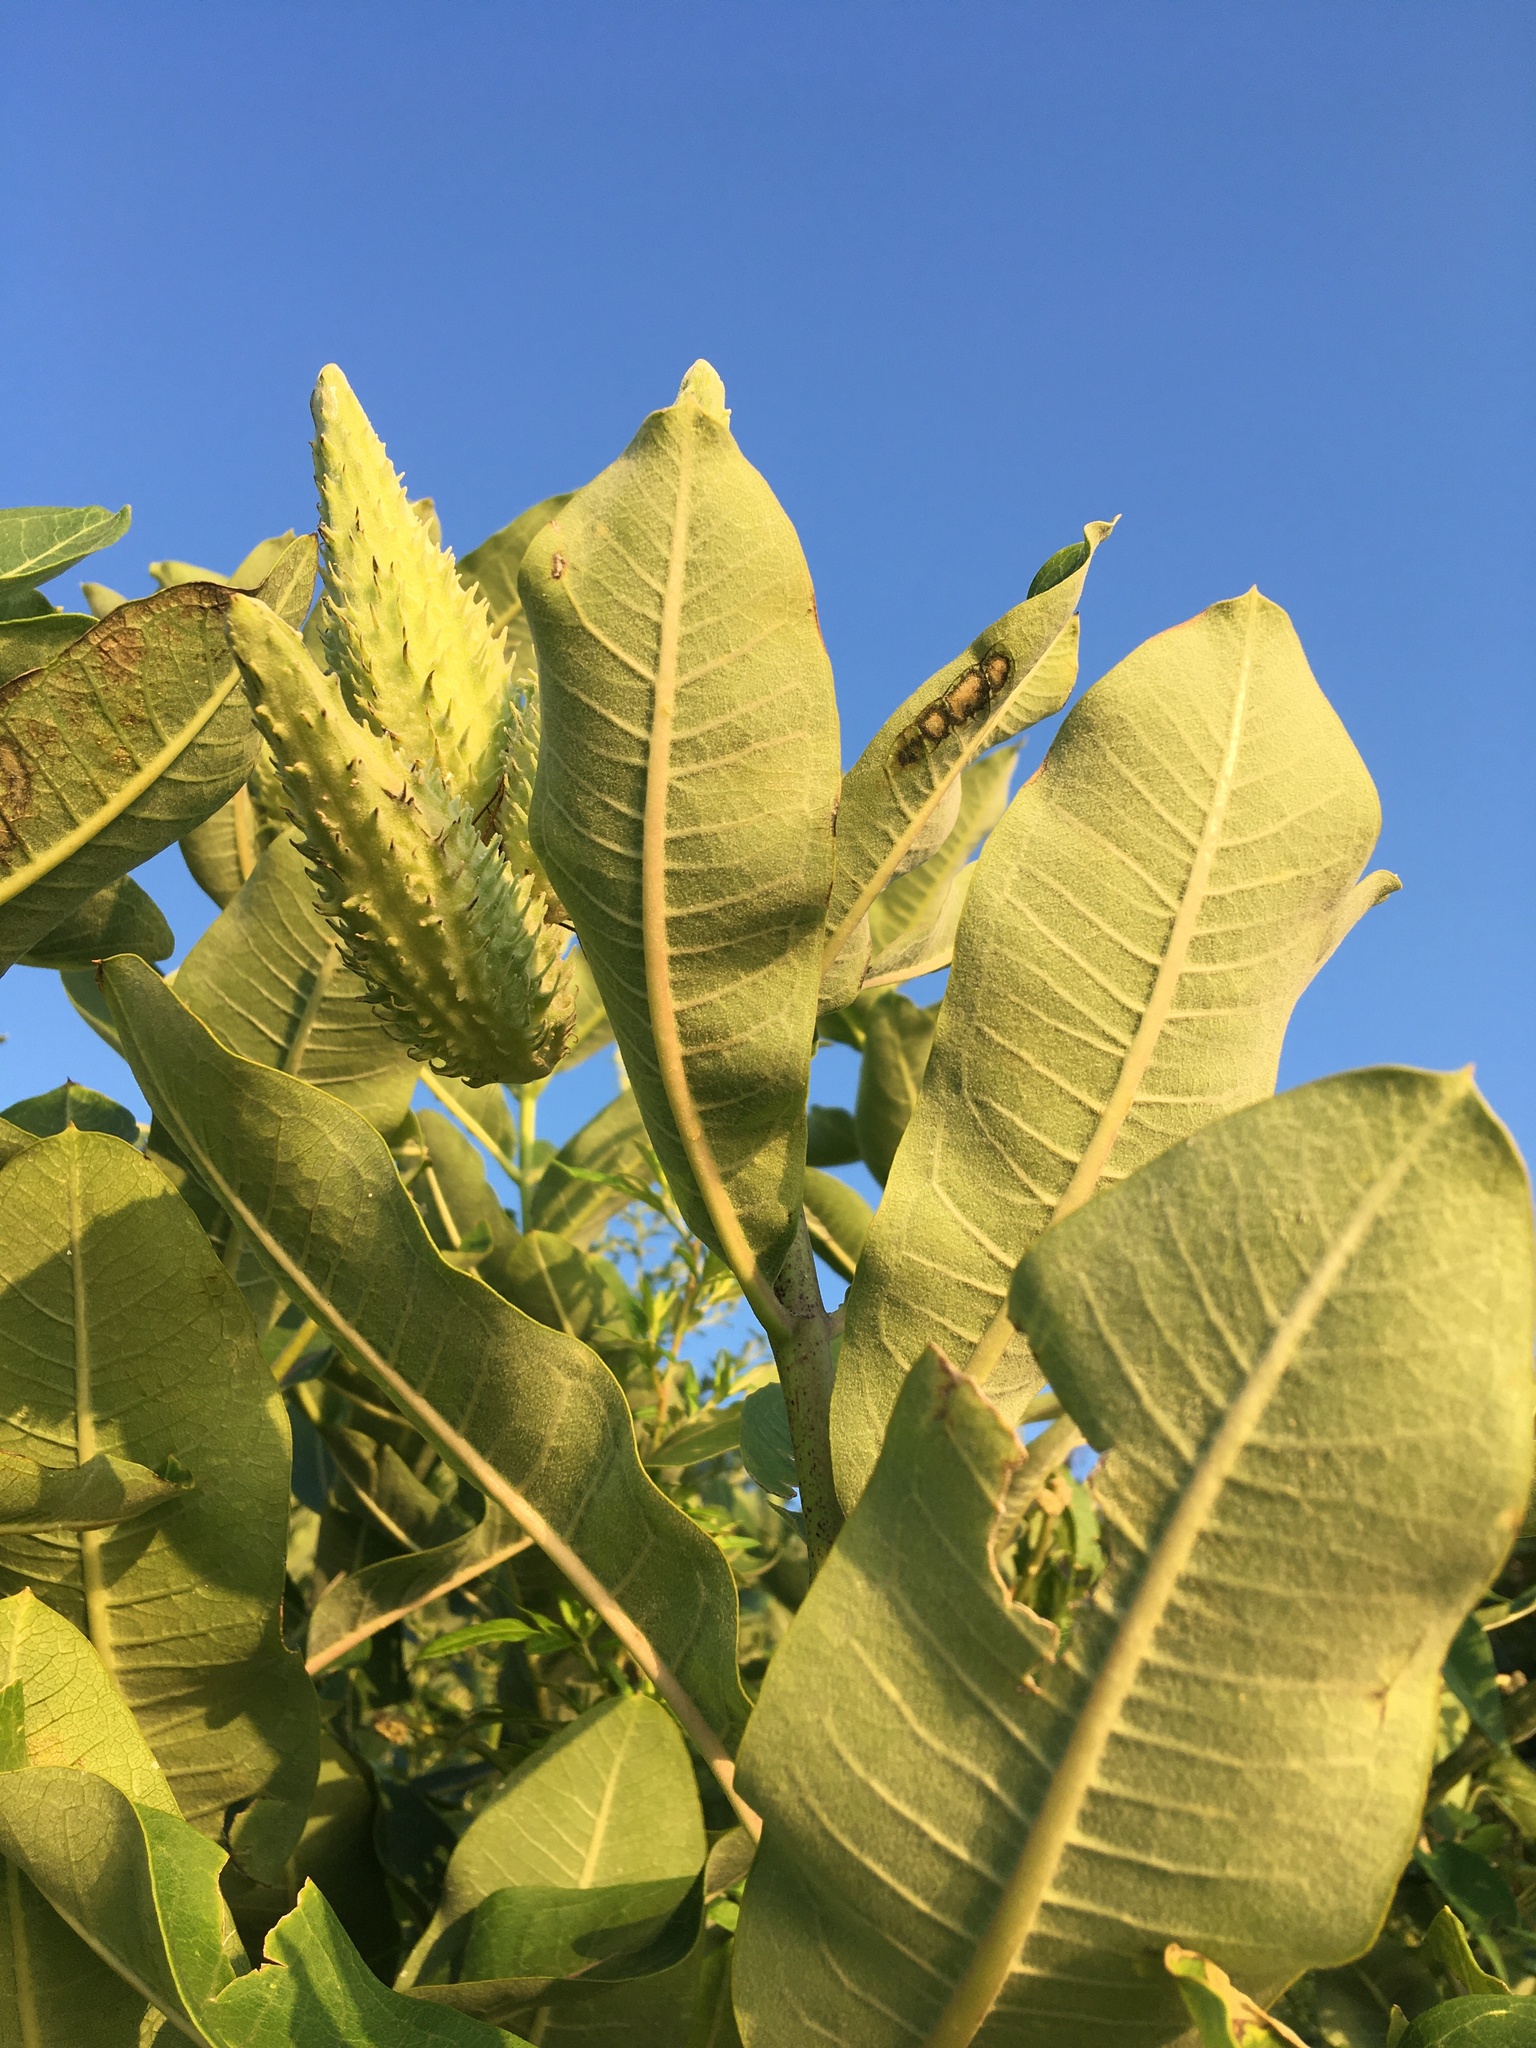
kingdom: Plantae
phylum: Tracheophyta
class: Magnoliopsida
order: Gentianales
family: Apocynaceae
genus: Asclepias
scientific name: Asclepias syriaca
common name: Common milkweed
